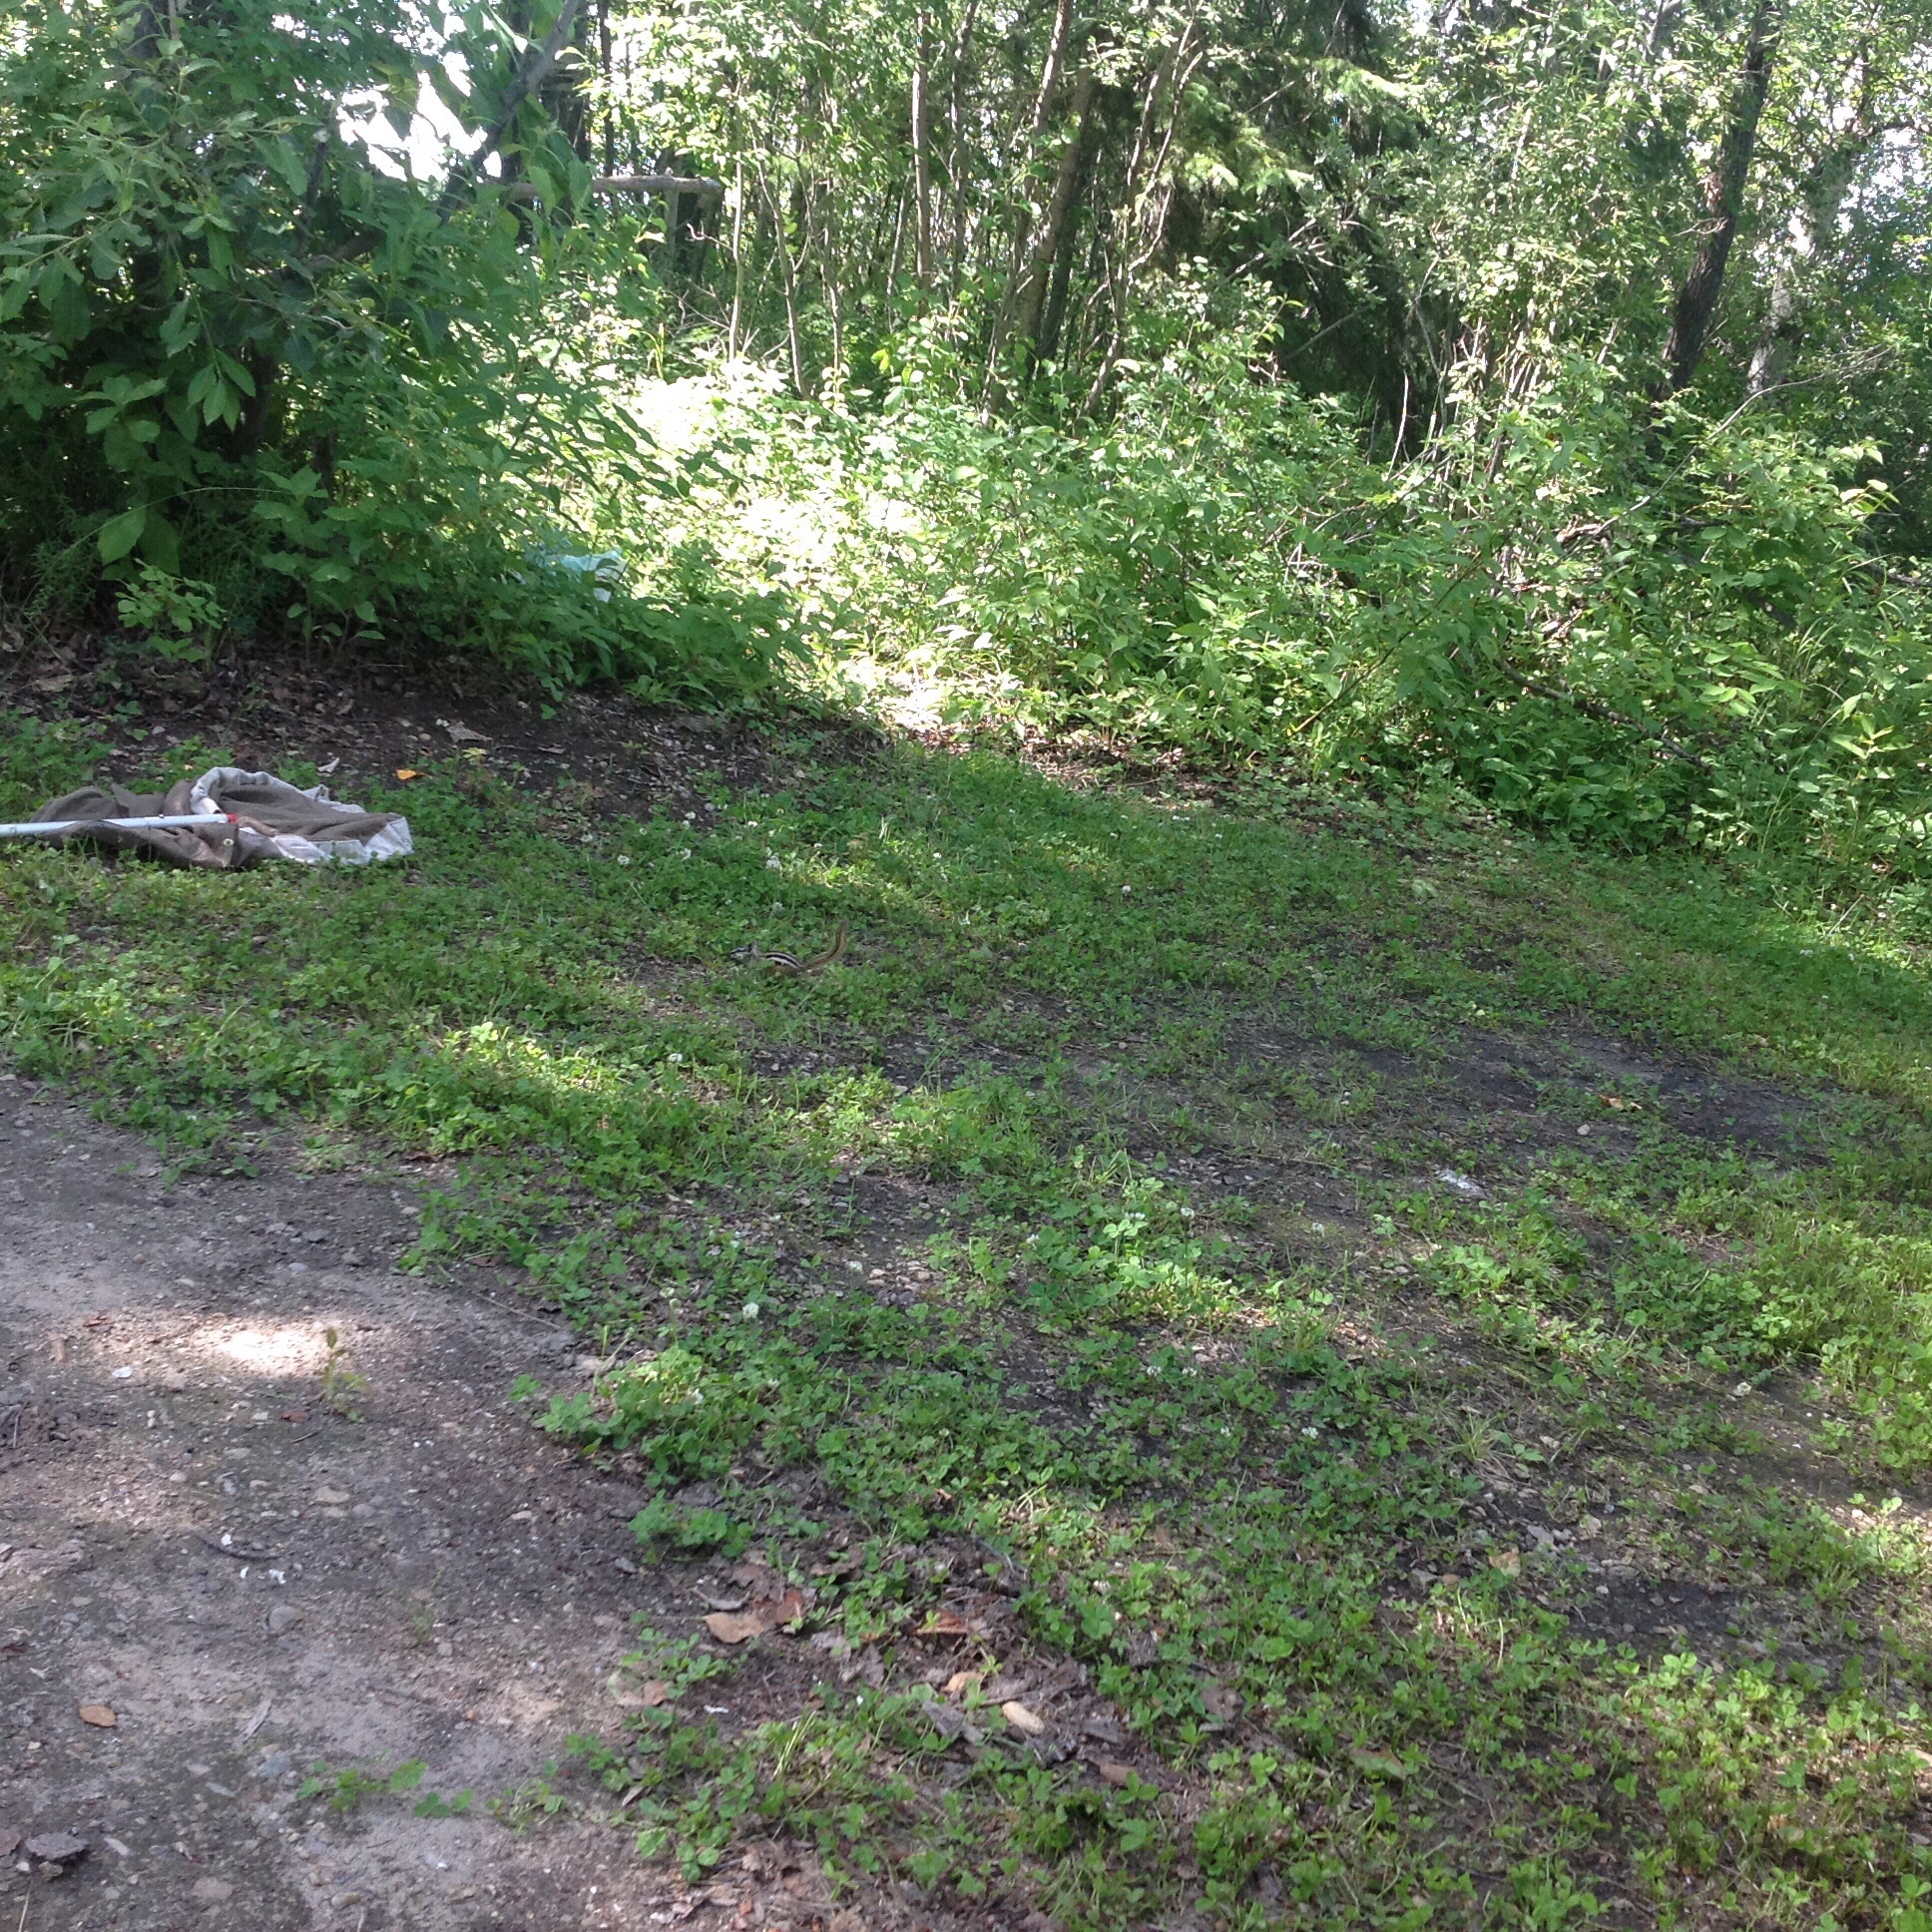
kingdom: Animalia
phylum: Chordata
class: Mammalia
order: Rodentia
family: Sciuridae
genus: Tamias
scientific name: Tamias minimus
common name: Least chipmunk
